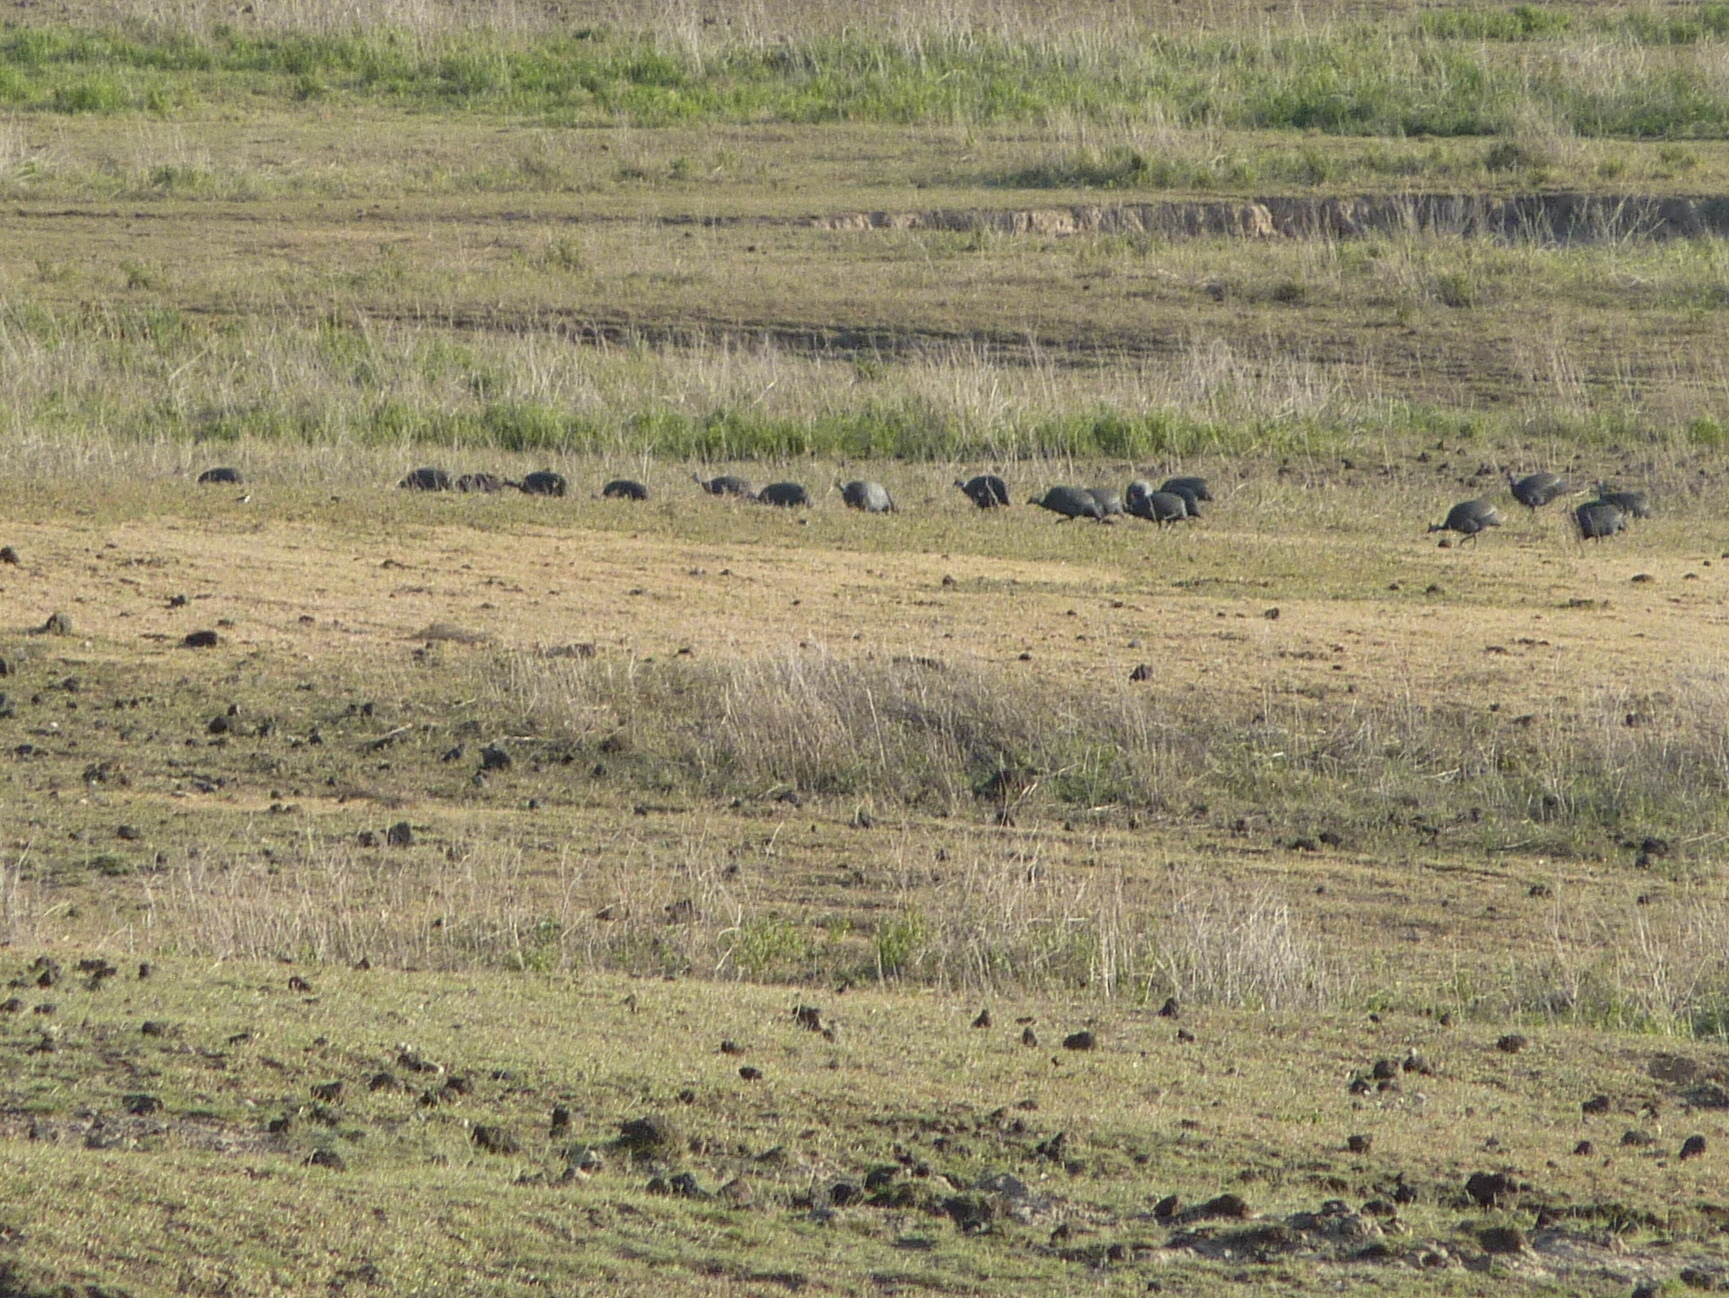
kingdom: Animalia
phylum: Chordata
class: Aves
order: Galliformes
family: Numididae
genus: Numida
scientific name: Numida meleagris
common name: Helmeted guineafowl
